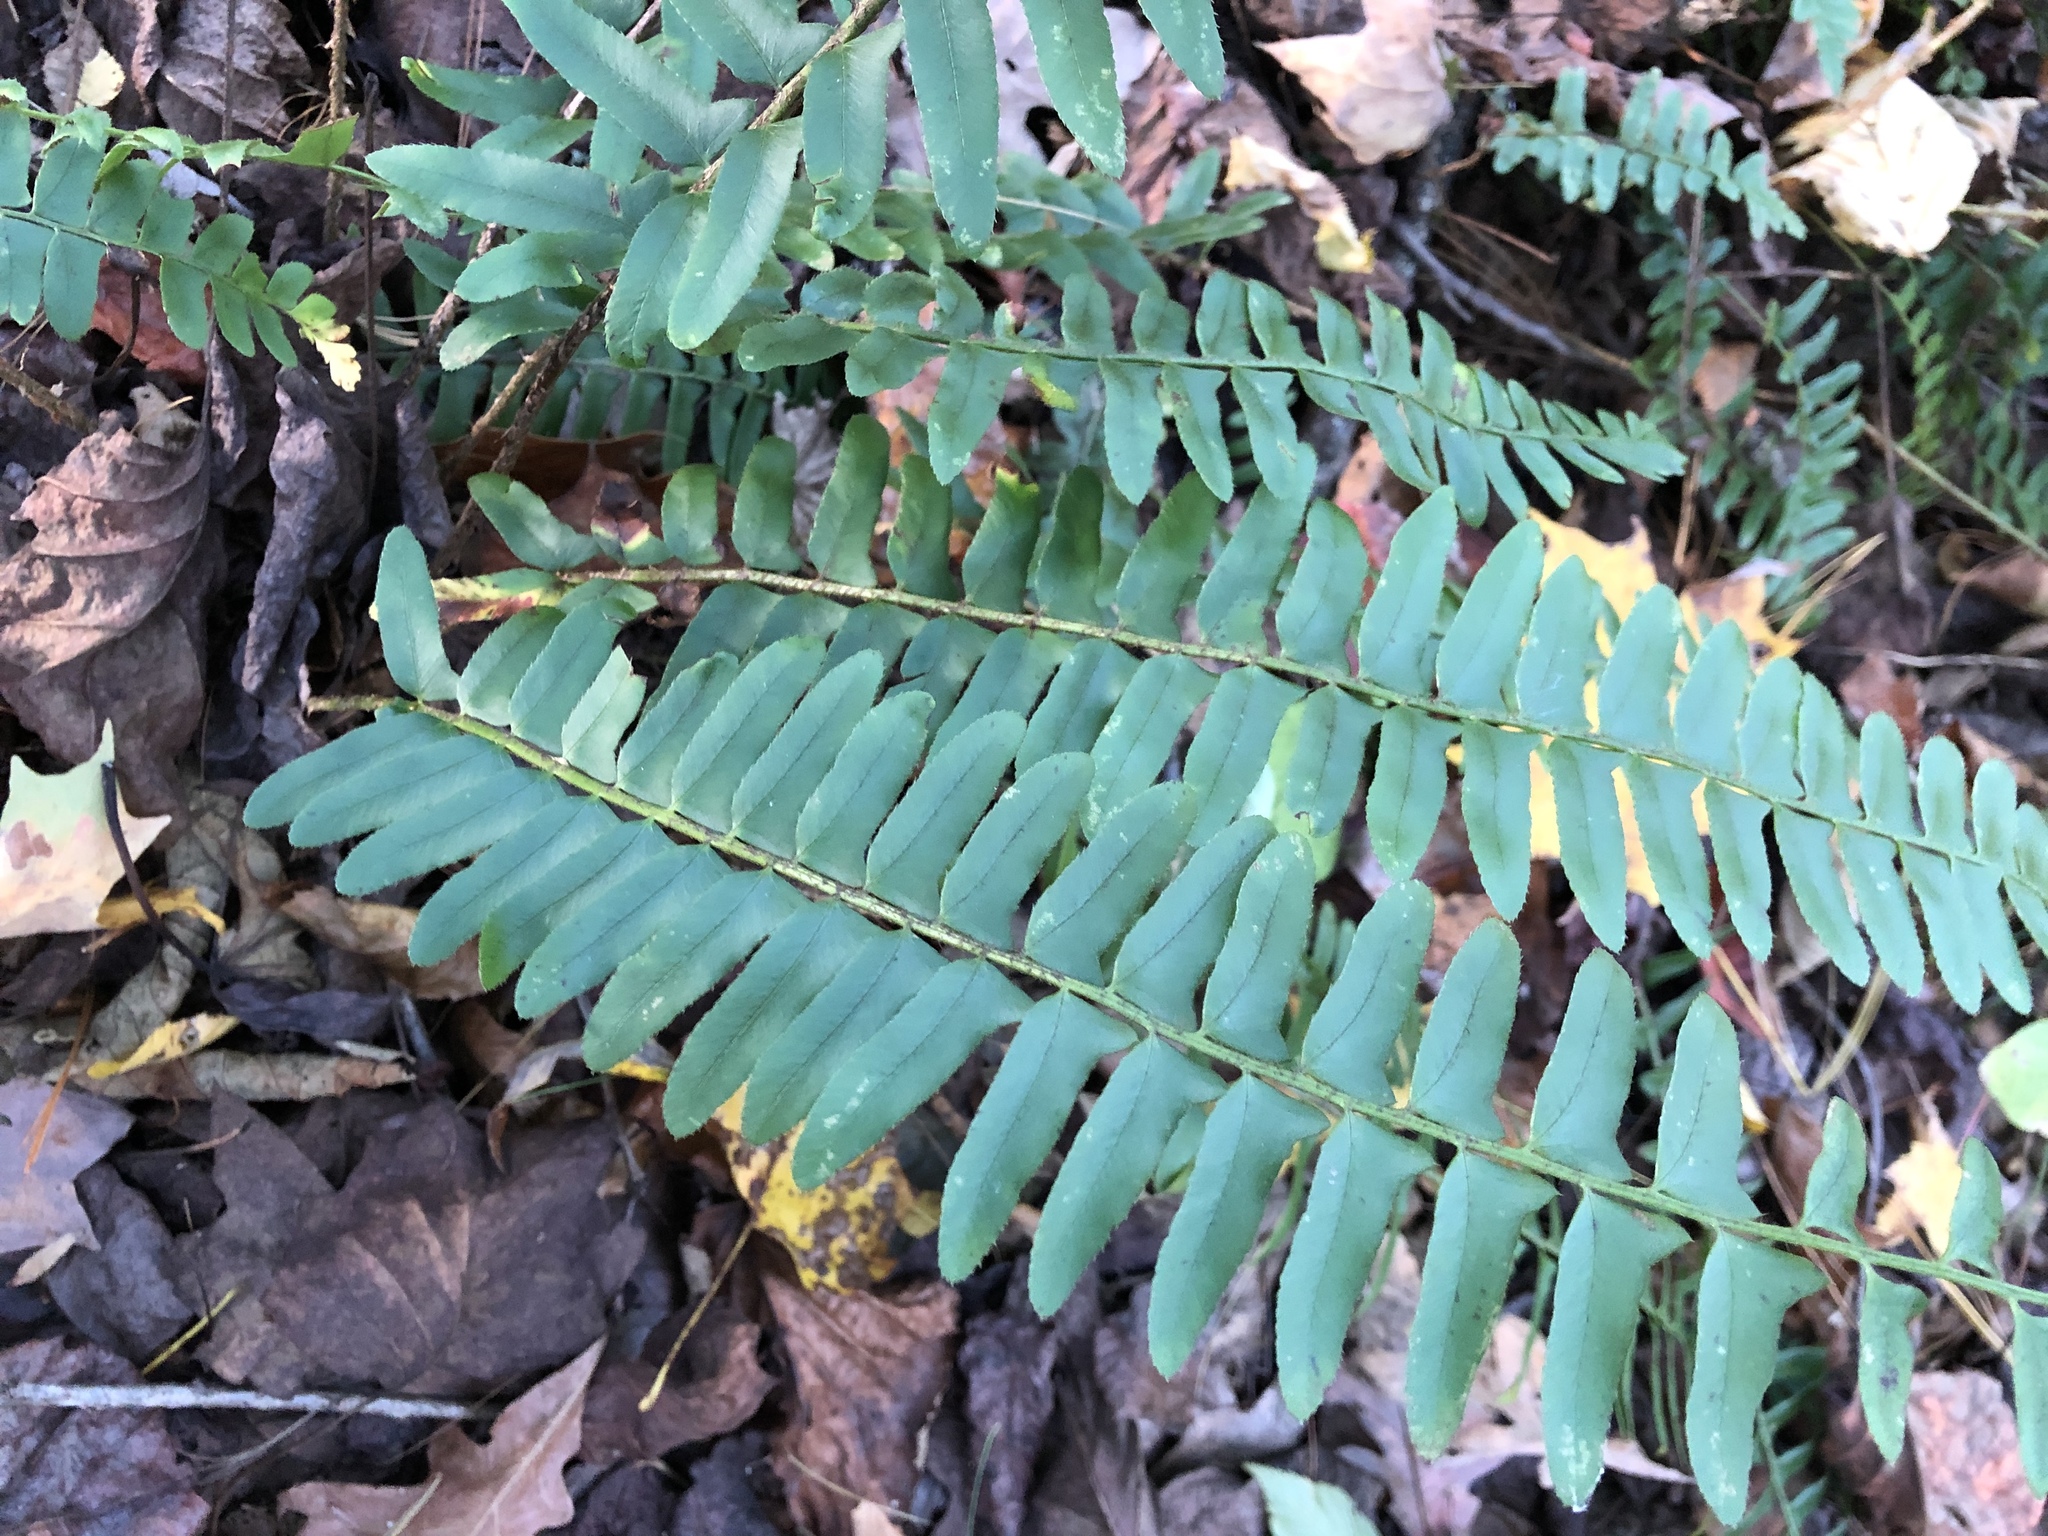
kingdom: Plantae
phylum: Tracheophyta
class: Polypodiopsida
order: Polypodiales
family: Dryopteridaceae
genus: Polystichum
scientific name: Polystichum acrostichoides
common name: Christmas fern
